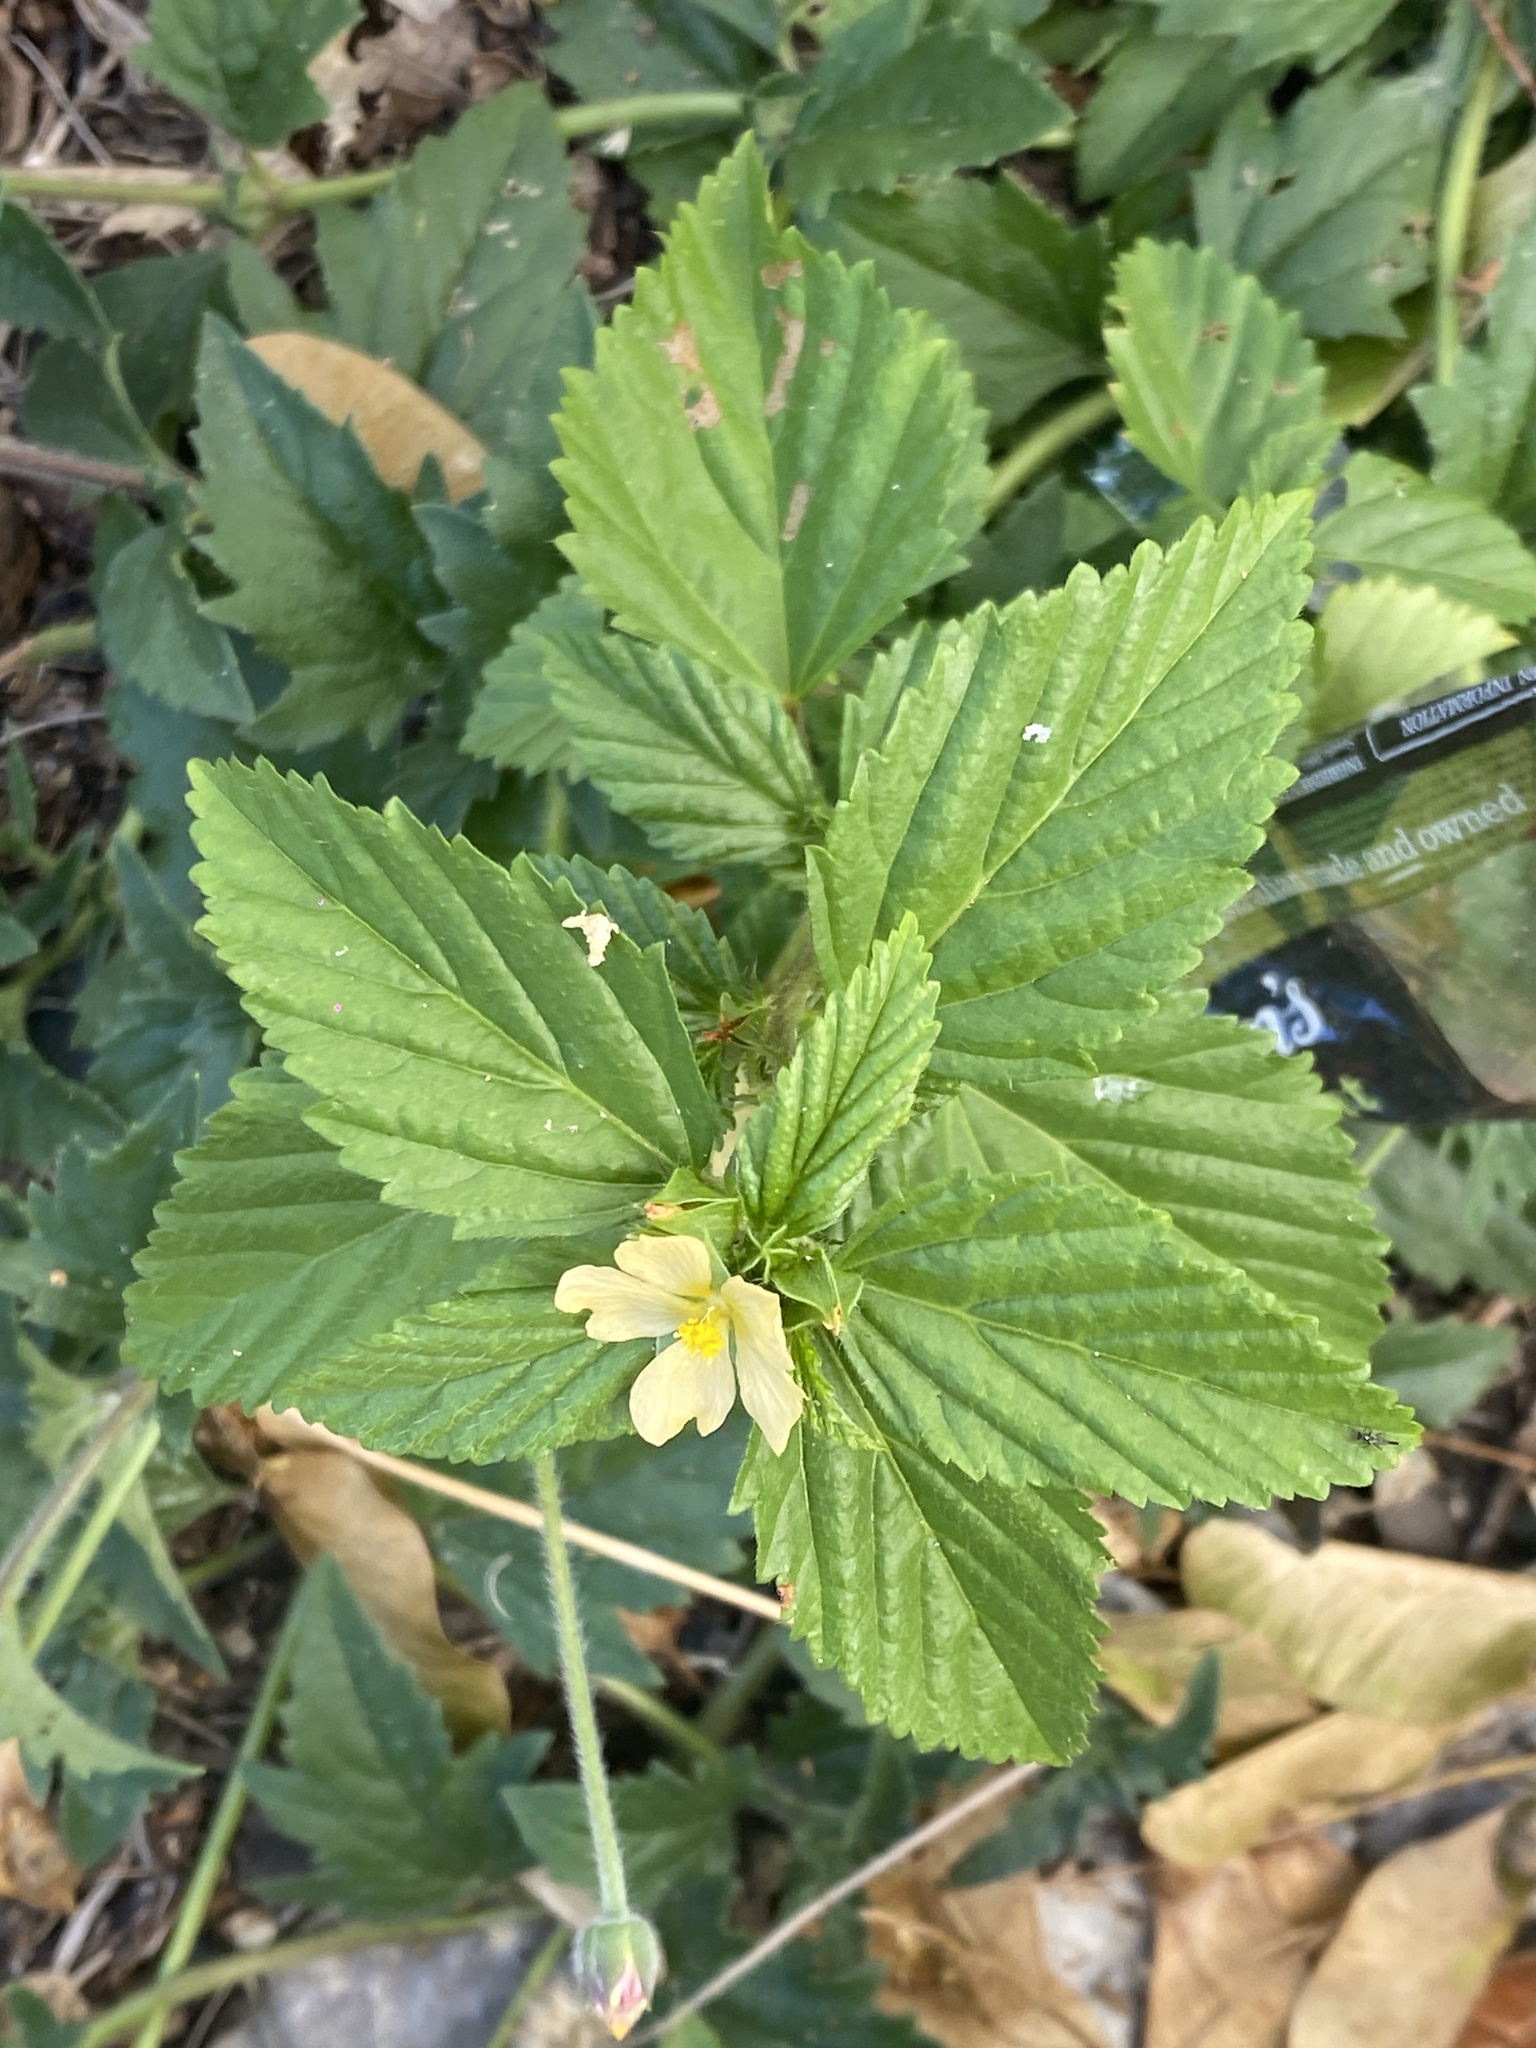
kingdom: Plantae
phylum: Tracheophyta
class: Magnoliopsida
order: Malvales
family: Malvaceae
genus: Malvastrum
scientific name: Malvastrum coromandelianum
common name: Threelobe false mallow
